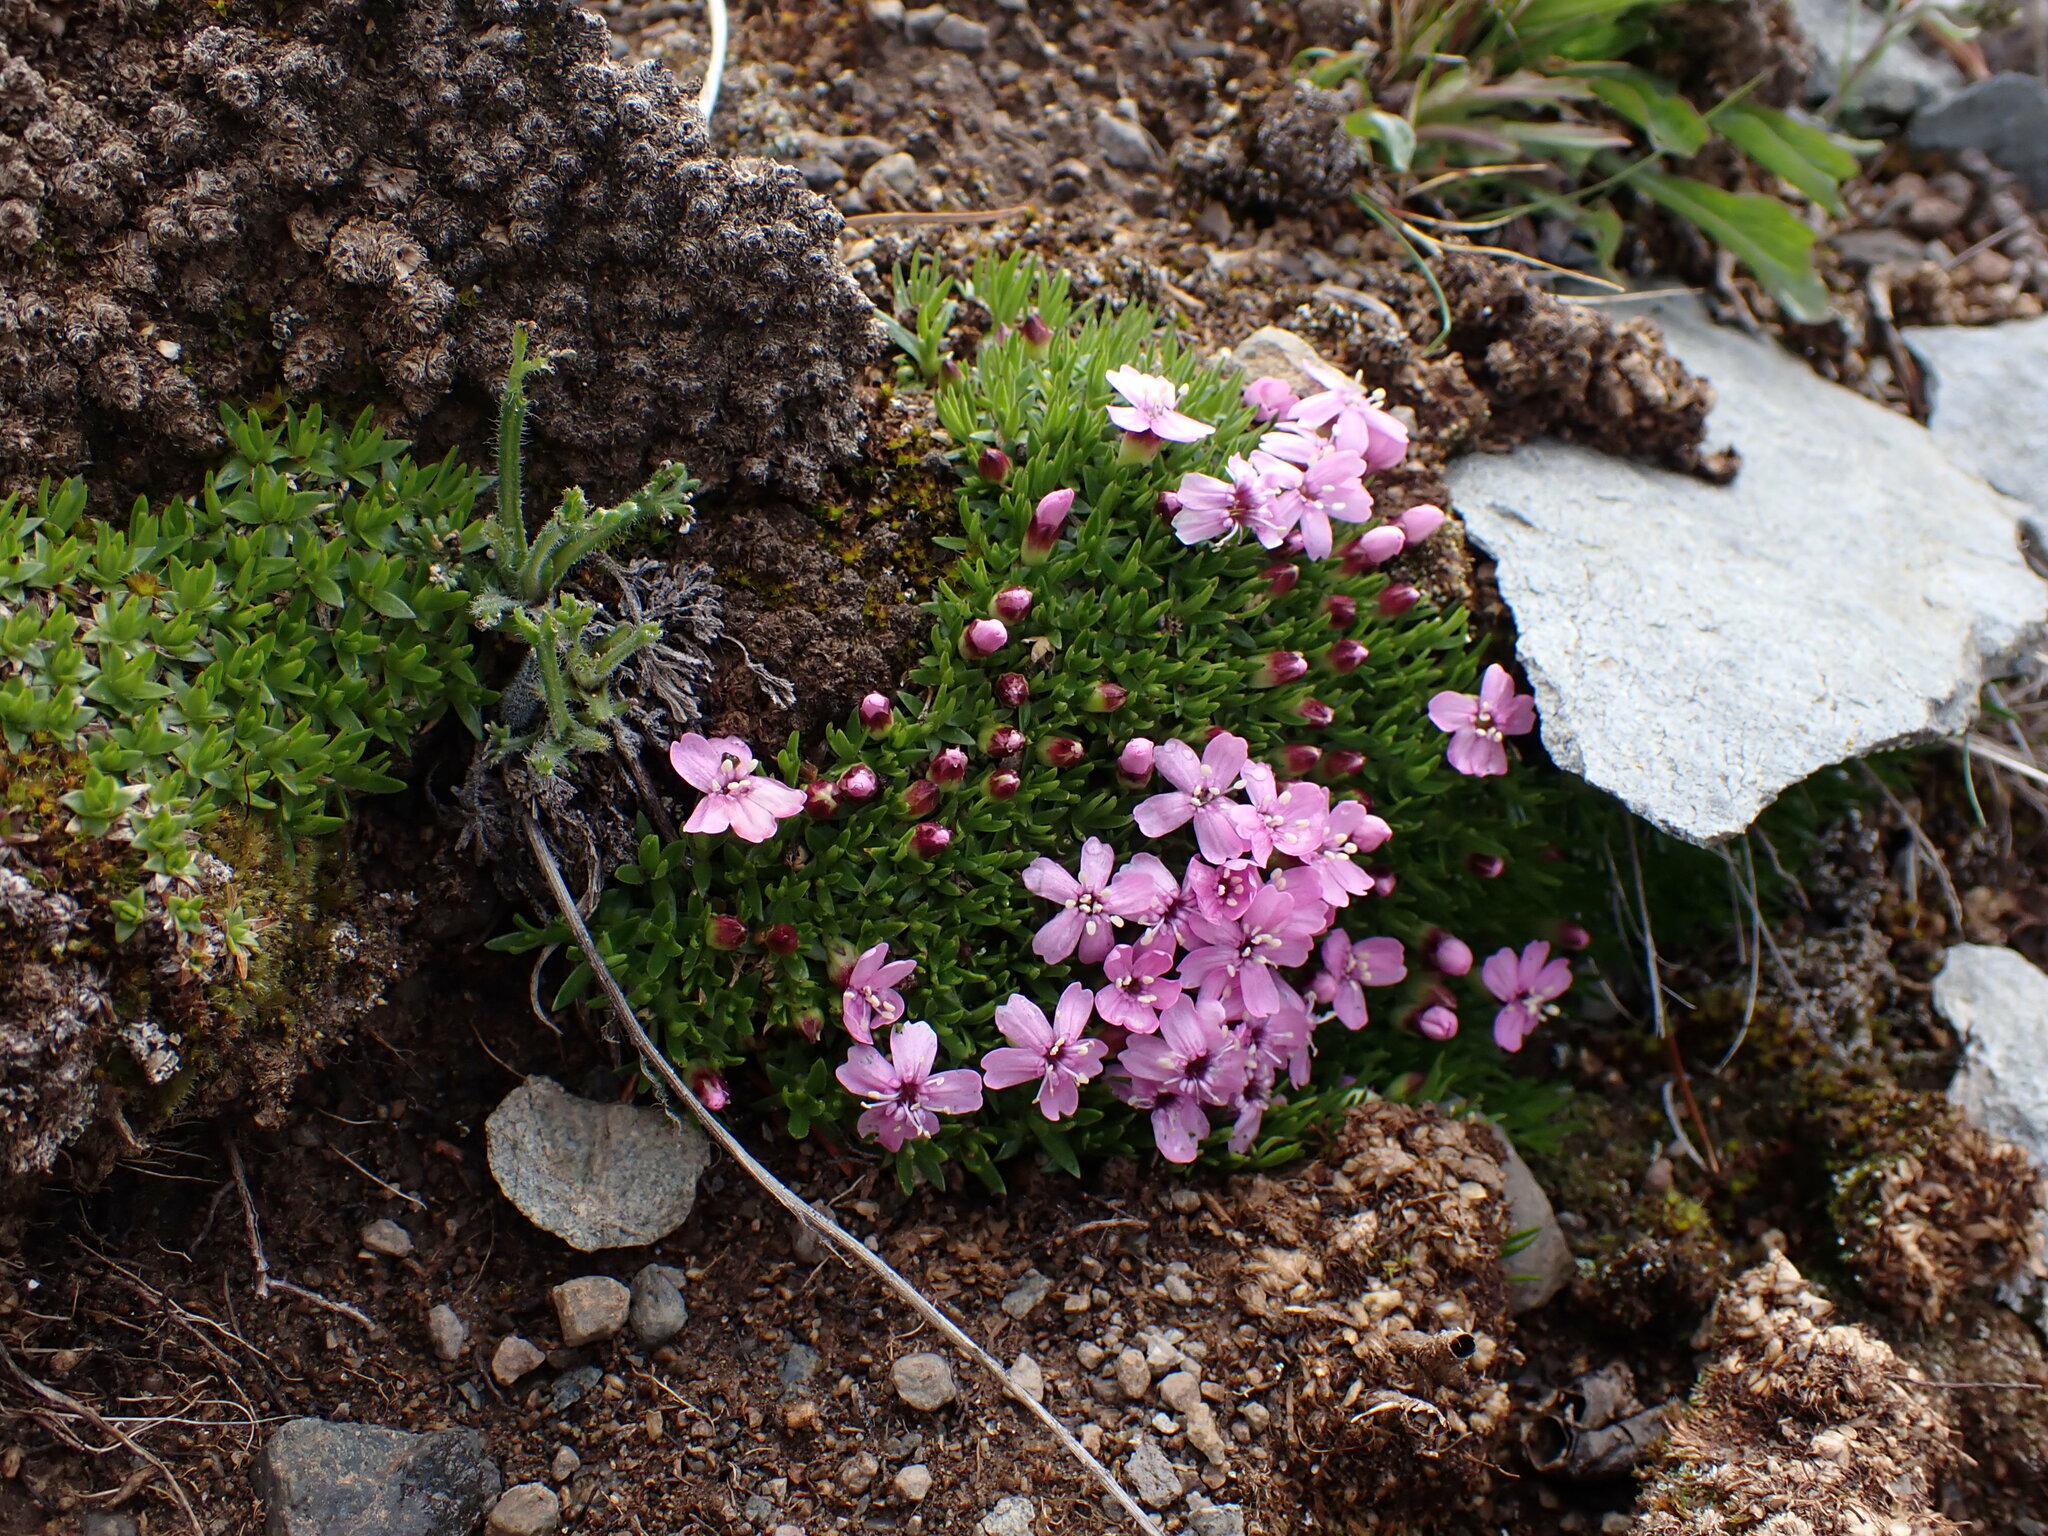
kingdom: Plantae
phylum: Tracheophyta
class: Magnoliopsida
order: Caryophyllales
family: Caryophyllaceae
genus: Silene
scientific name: Silene acaulis
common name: Moss campion
